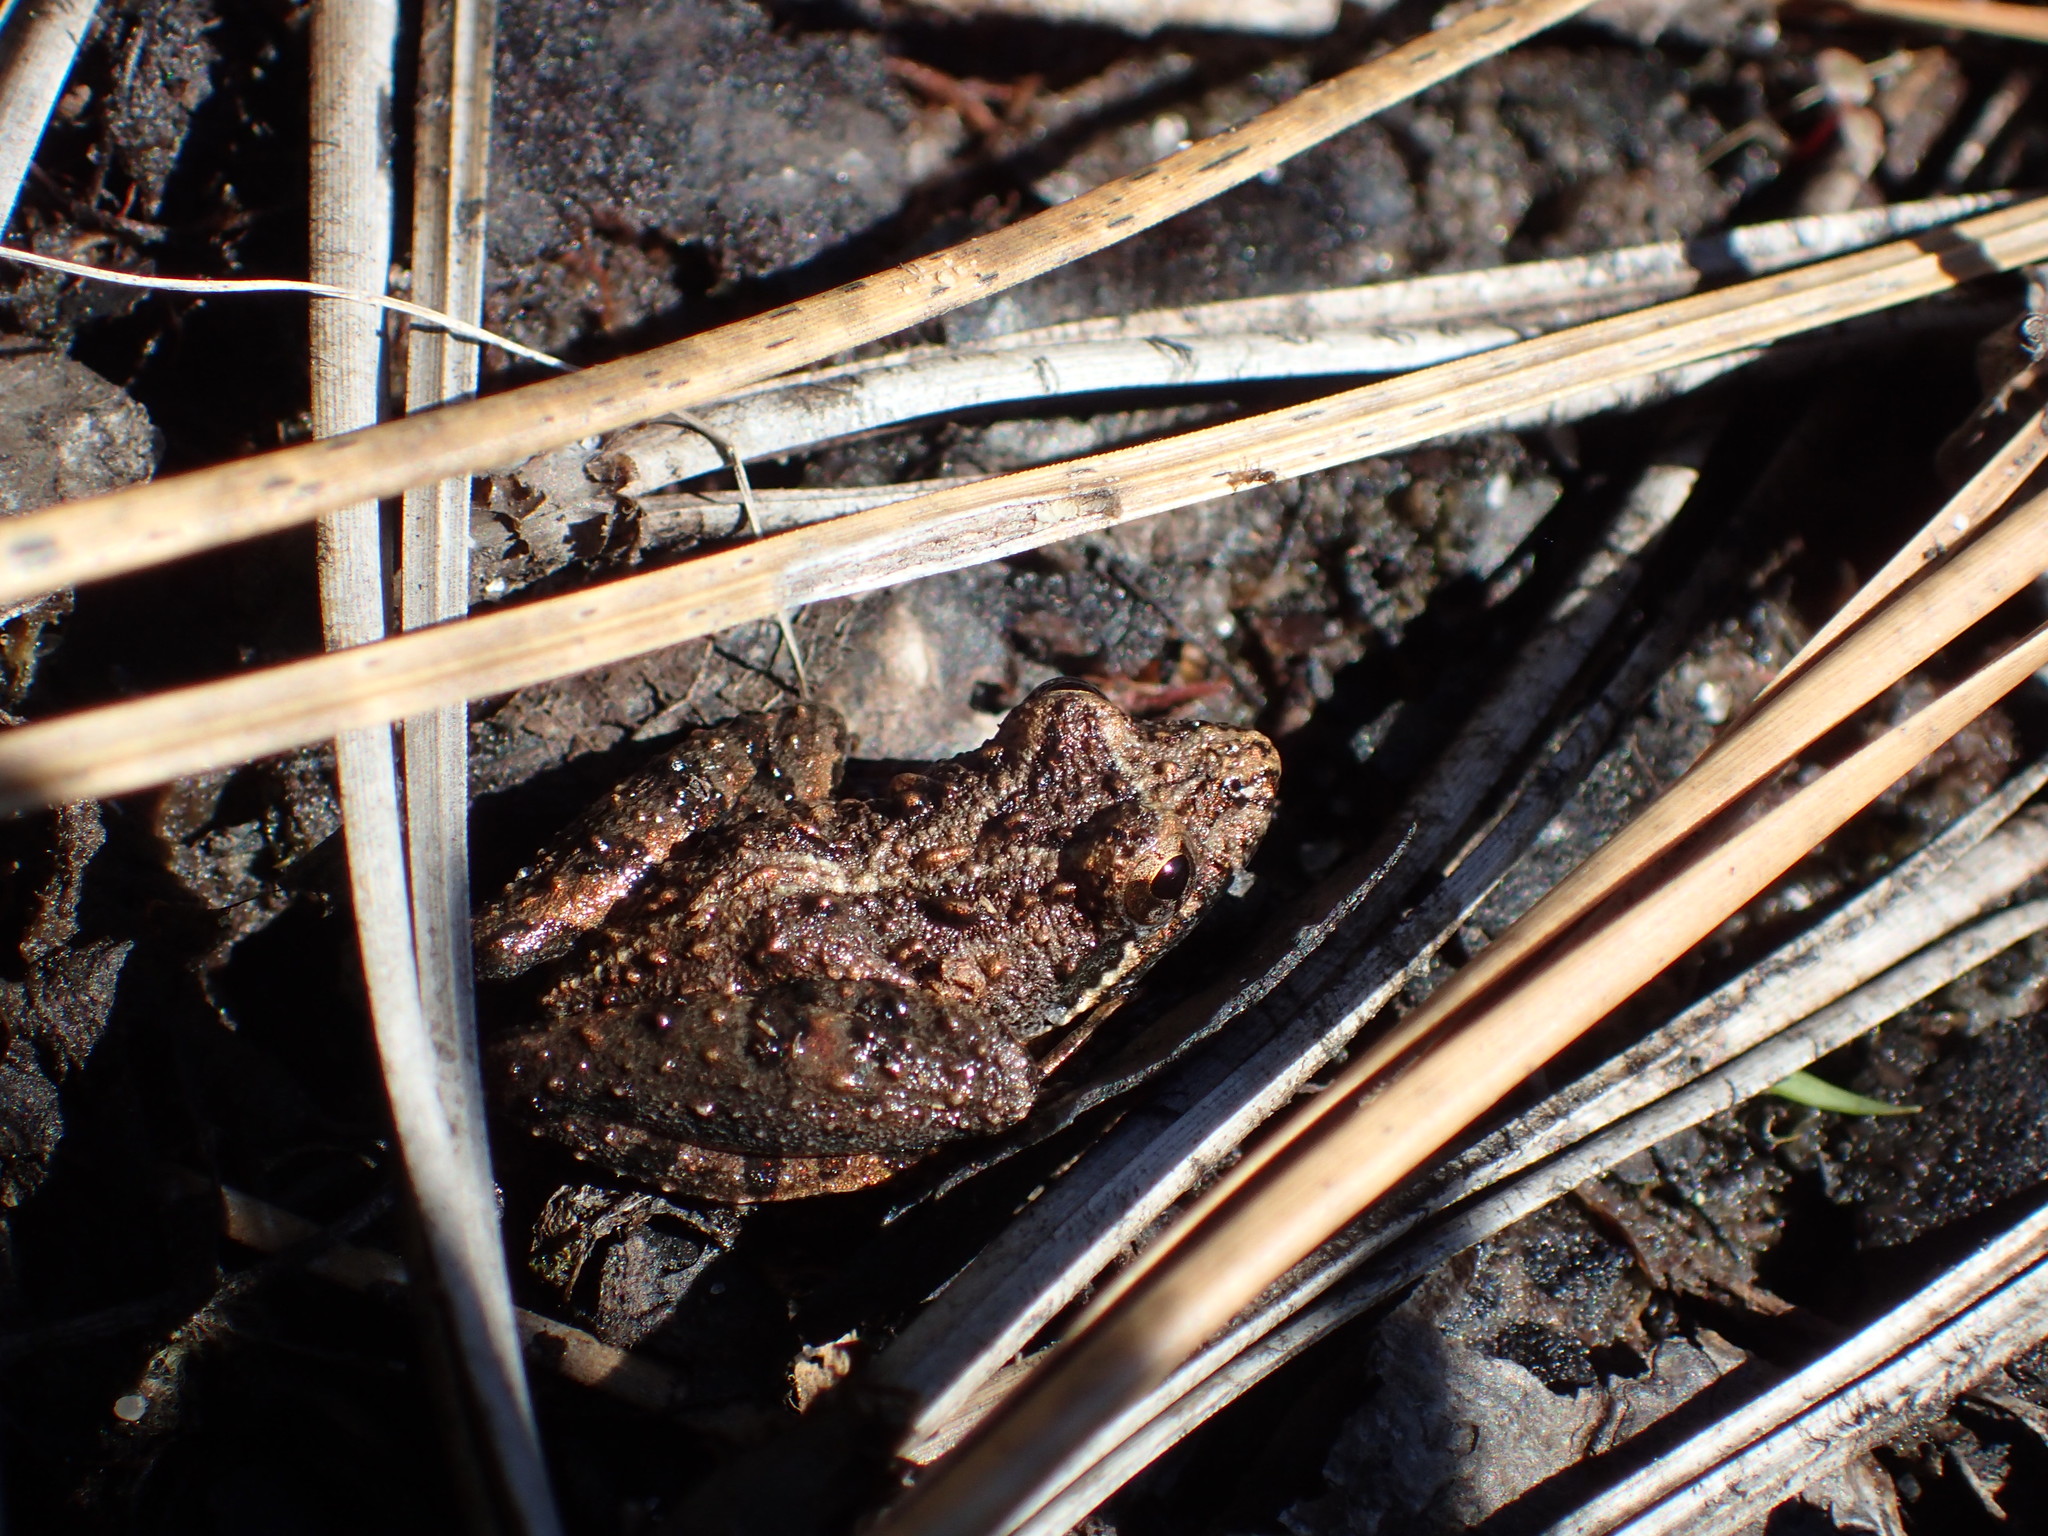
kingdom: Animalia
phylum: Chordata
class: Amphibia
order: Anura
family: Hylidae
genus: Acris
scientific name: Acris gryllus
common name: Southern cricket frog
